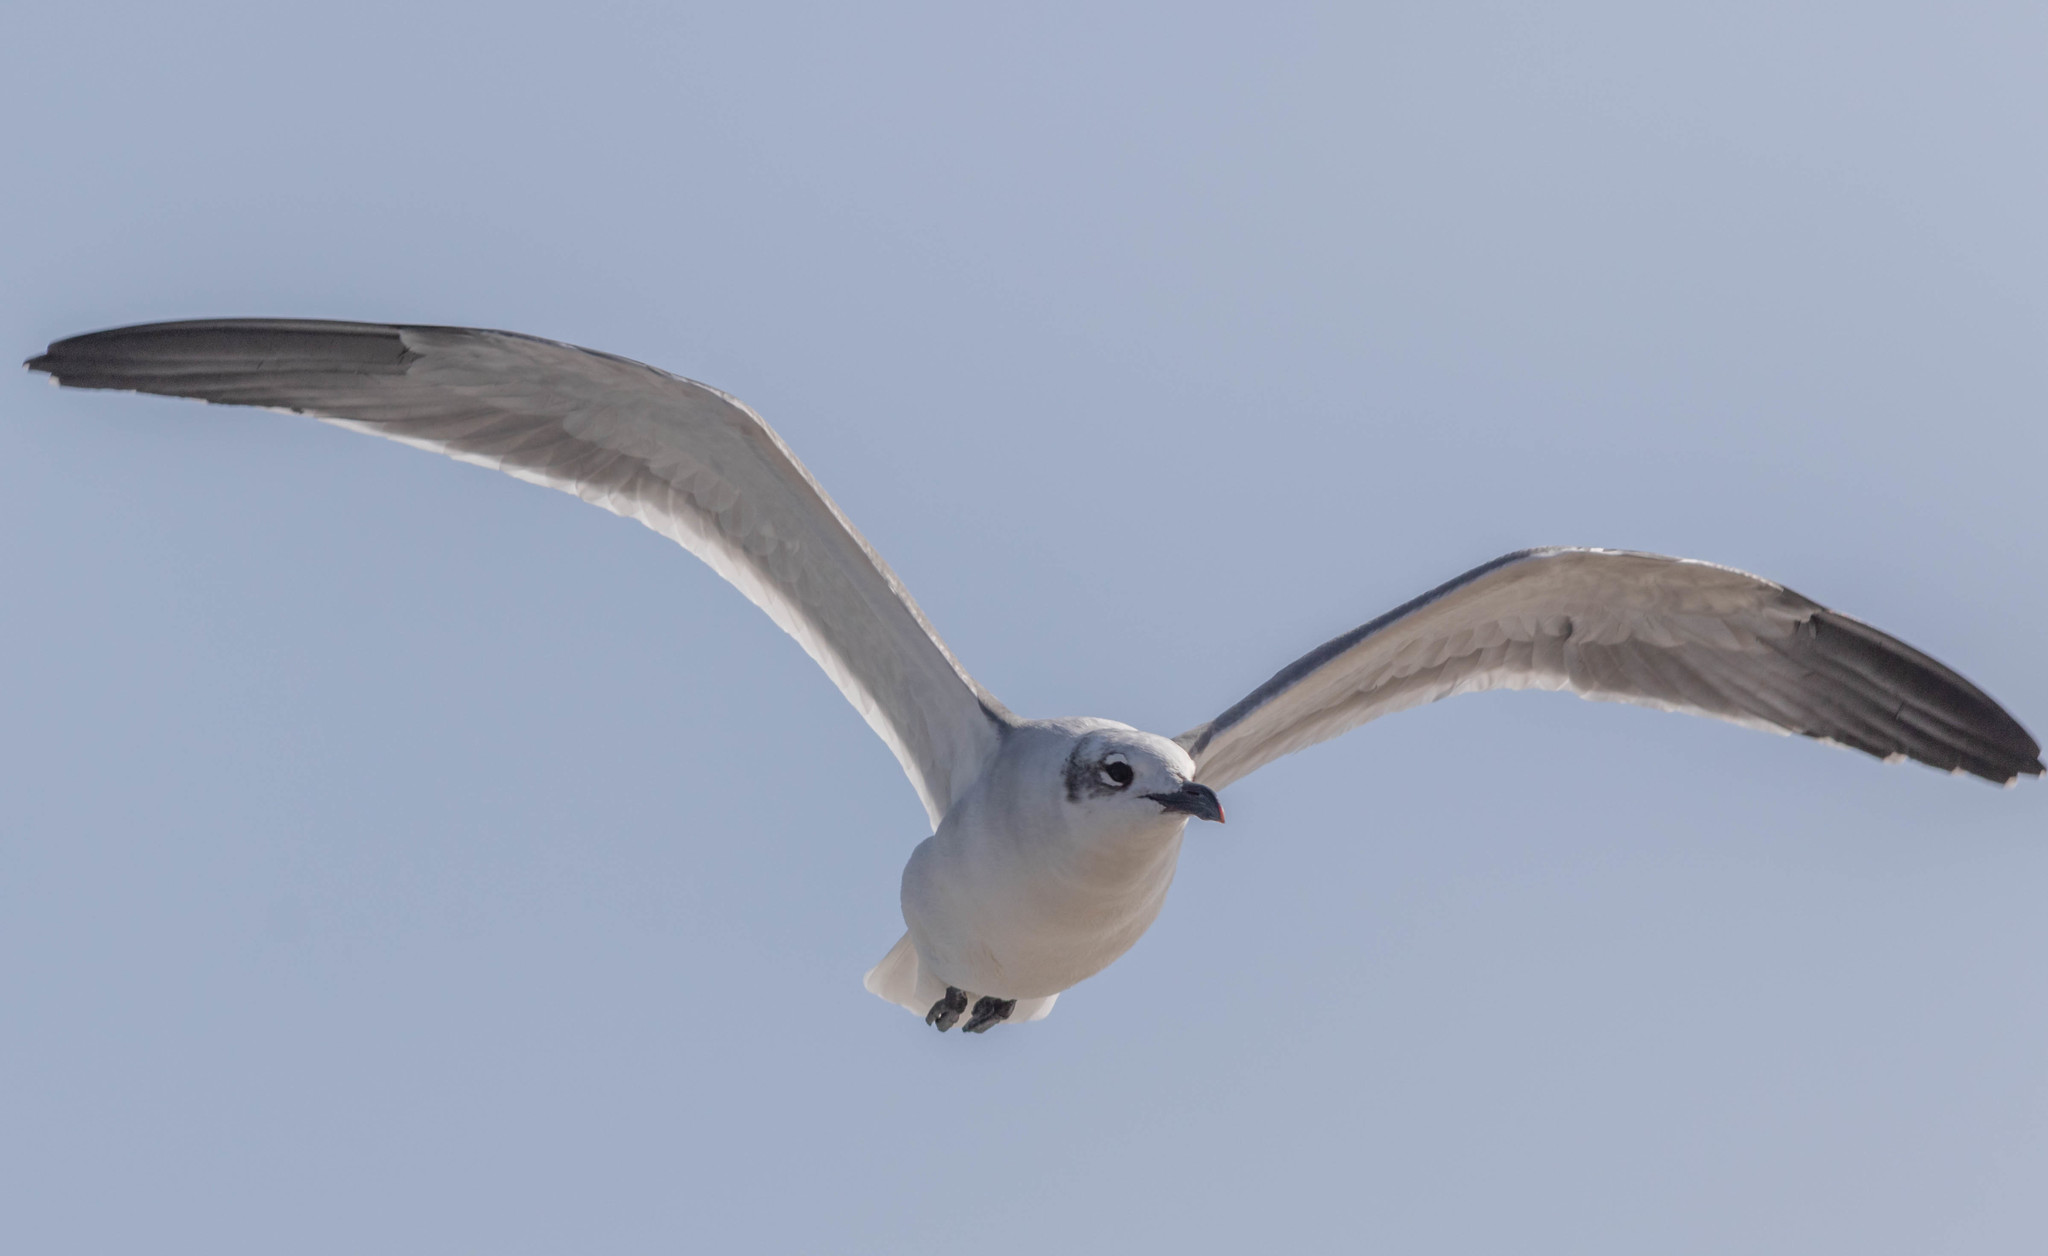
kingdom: Animalia
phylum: Chordata
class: Aves
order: Charadriiformes
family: Laridae
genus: Leucophaeus
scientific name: Leucophaeus atricilla
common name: Laughing gull
